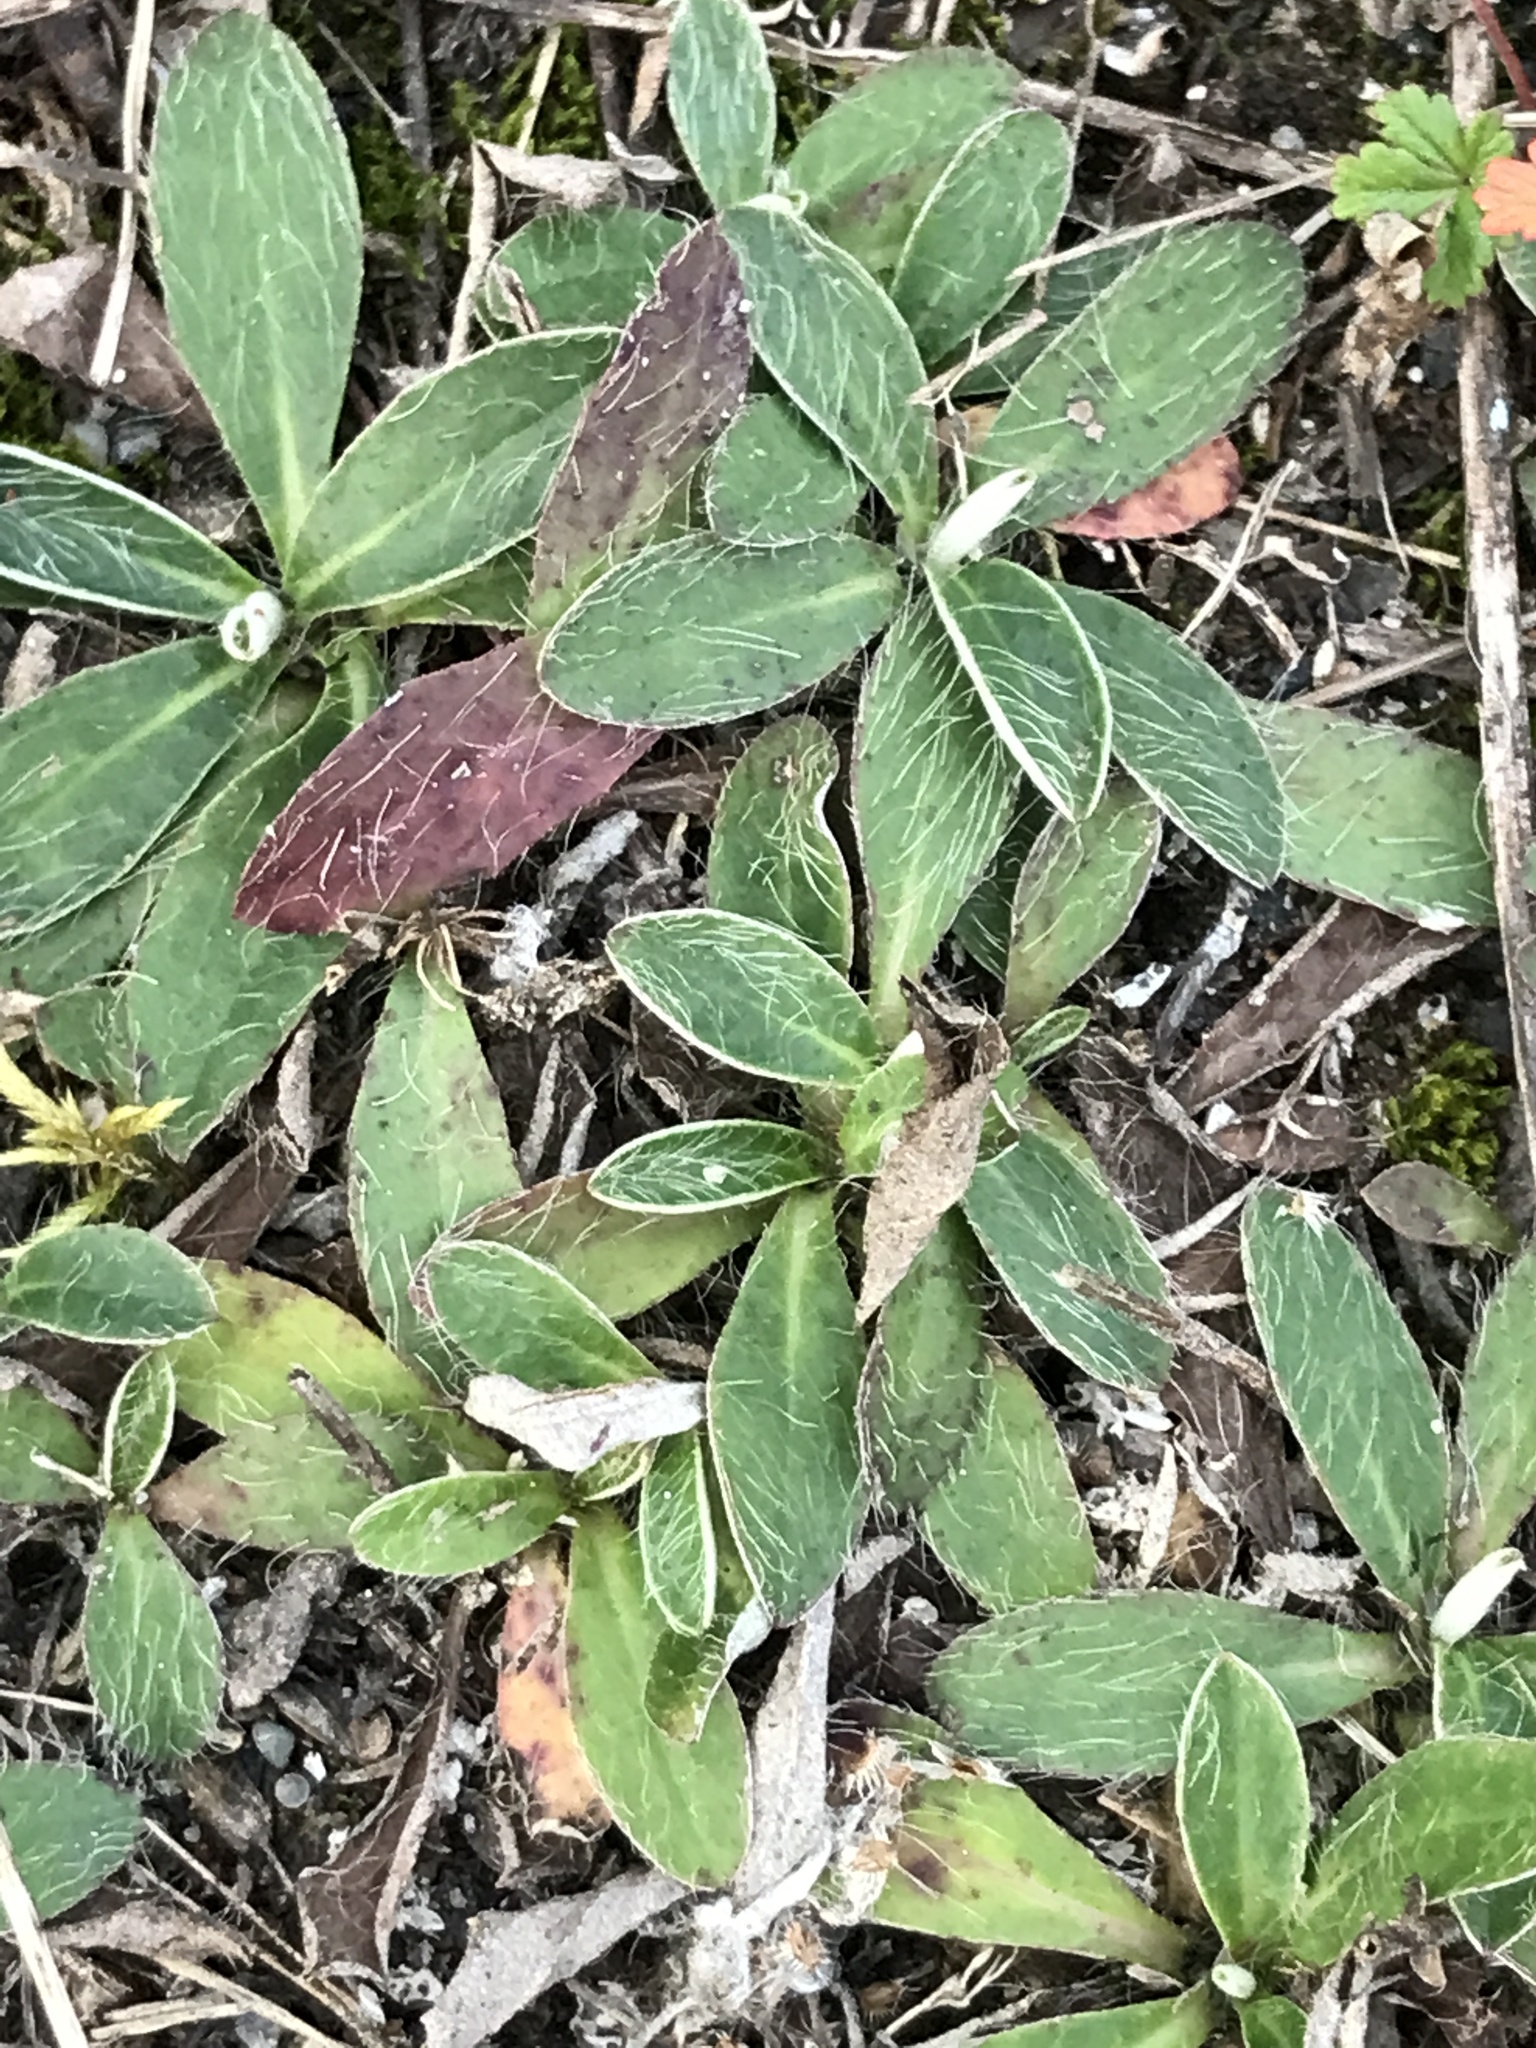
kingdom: Plantae
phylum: Tracheophyta
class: Magnoliopsida
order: Asterales
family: Asteraceae
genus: Pilosella
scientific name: Pilosella officinarum
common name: Mouse-ear hawkweed
